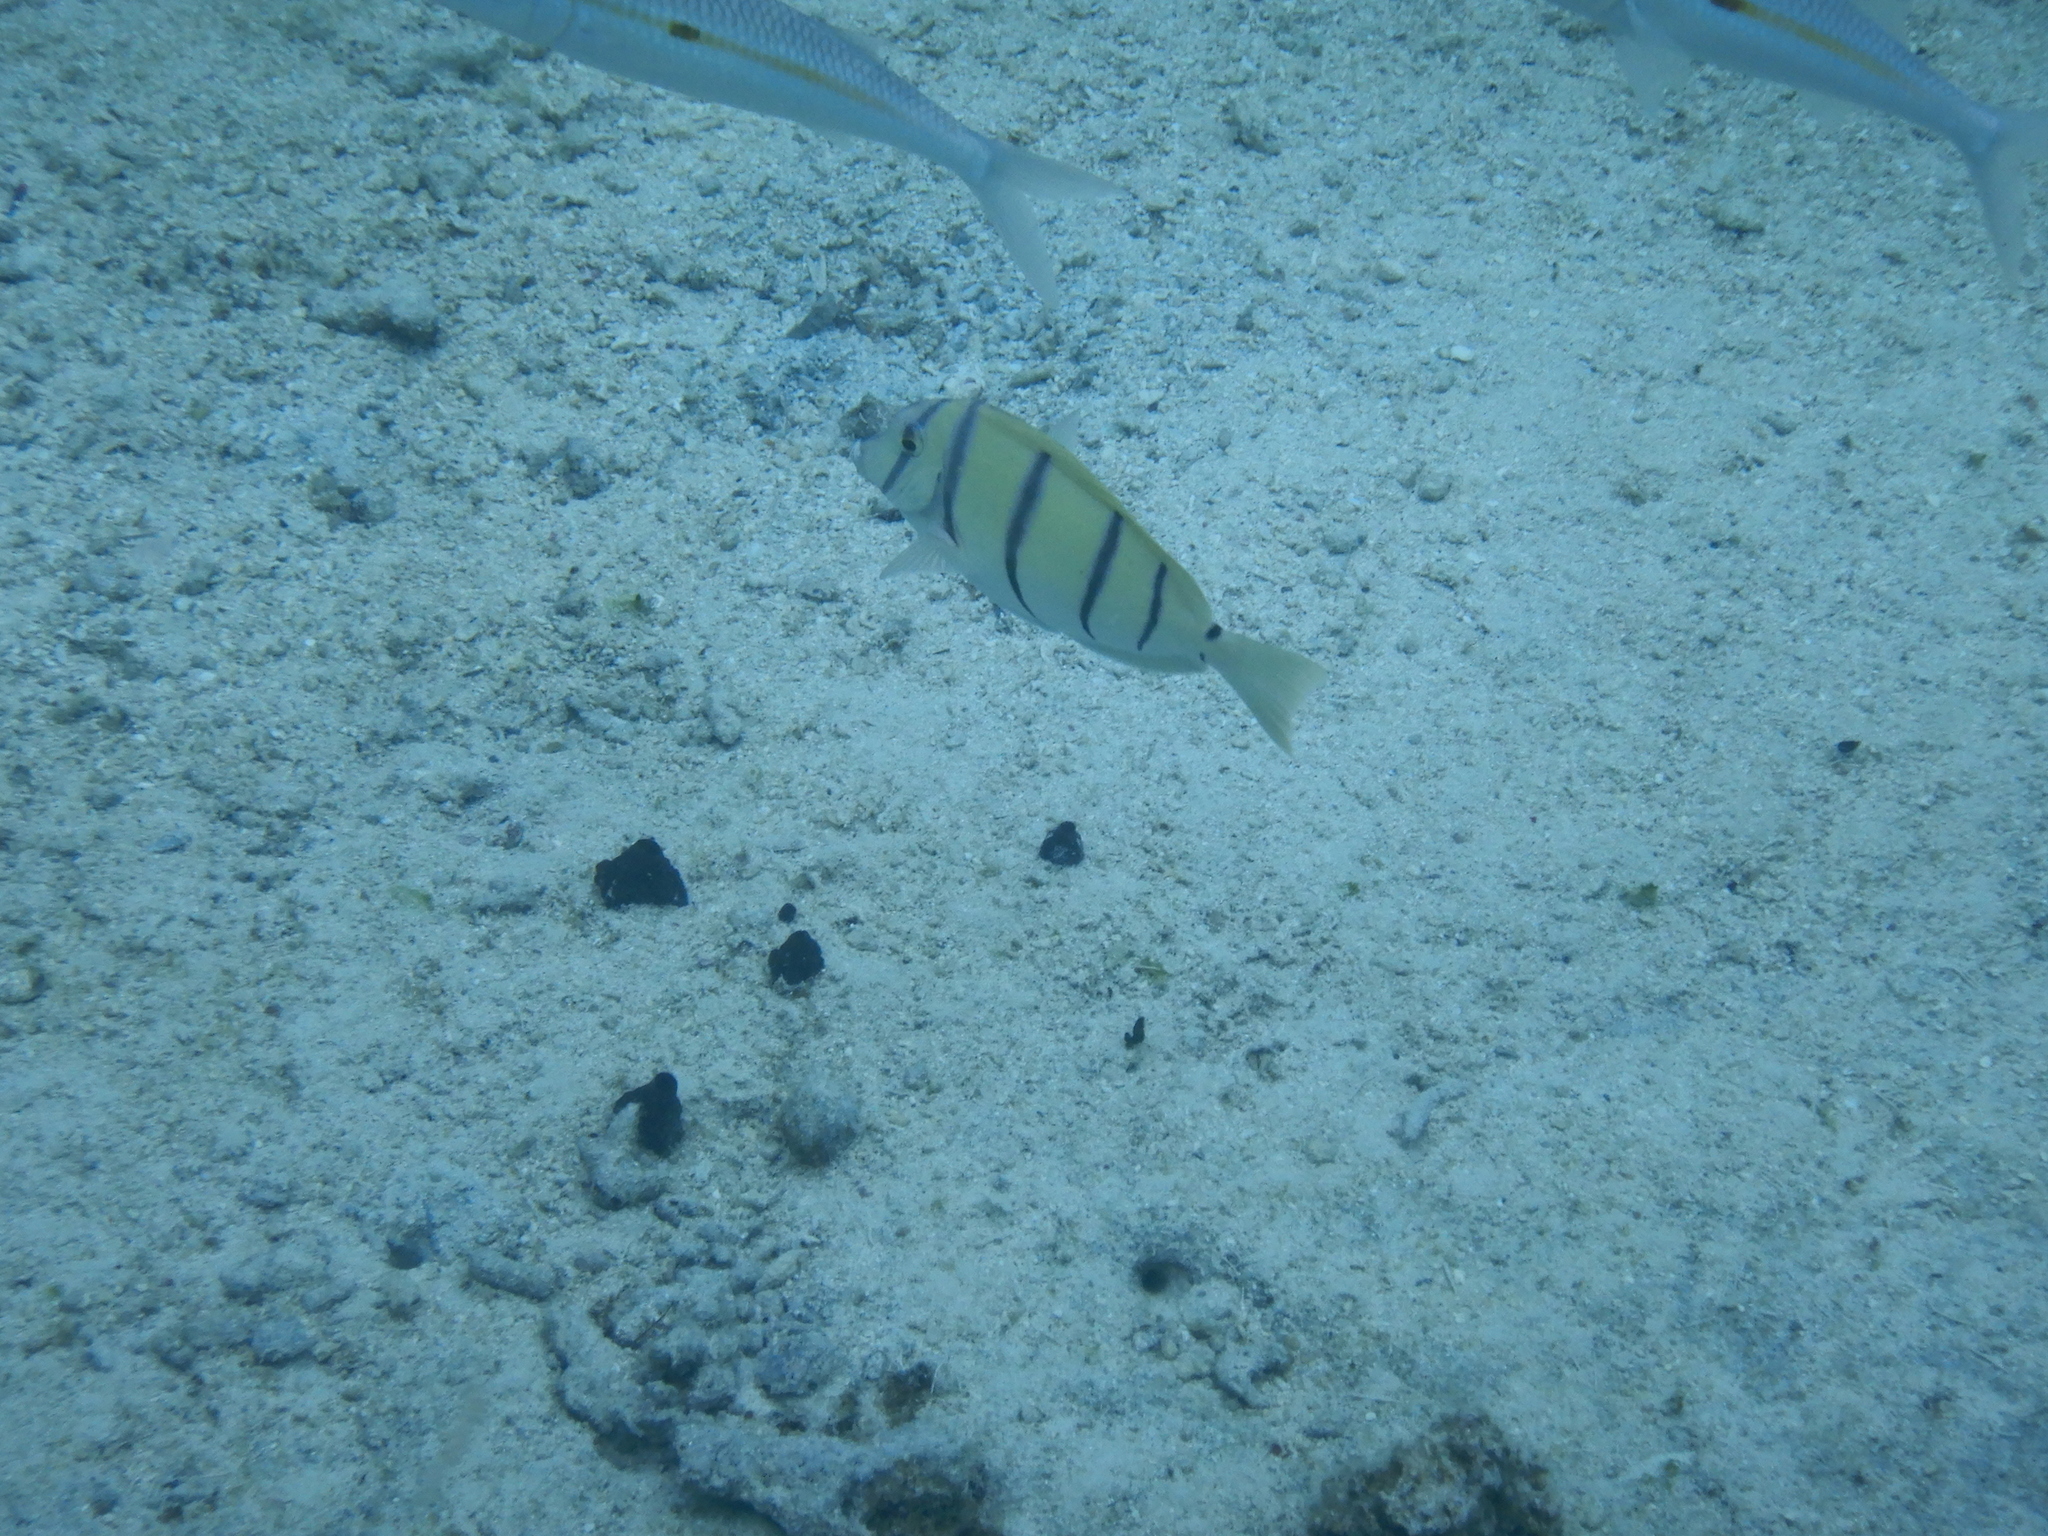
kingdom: Animalia
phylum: Chordata
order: Perciformes
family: Acanthuridae
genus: Acanthurus
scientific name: Acanthurus triostegus
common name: Convict surgeonfish
